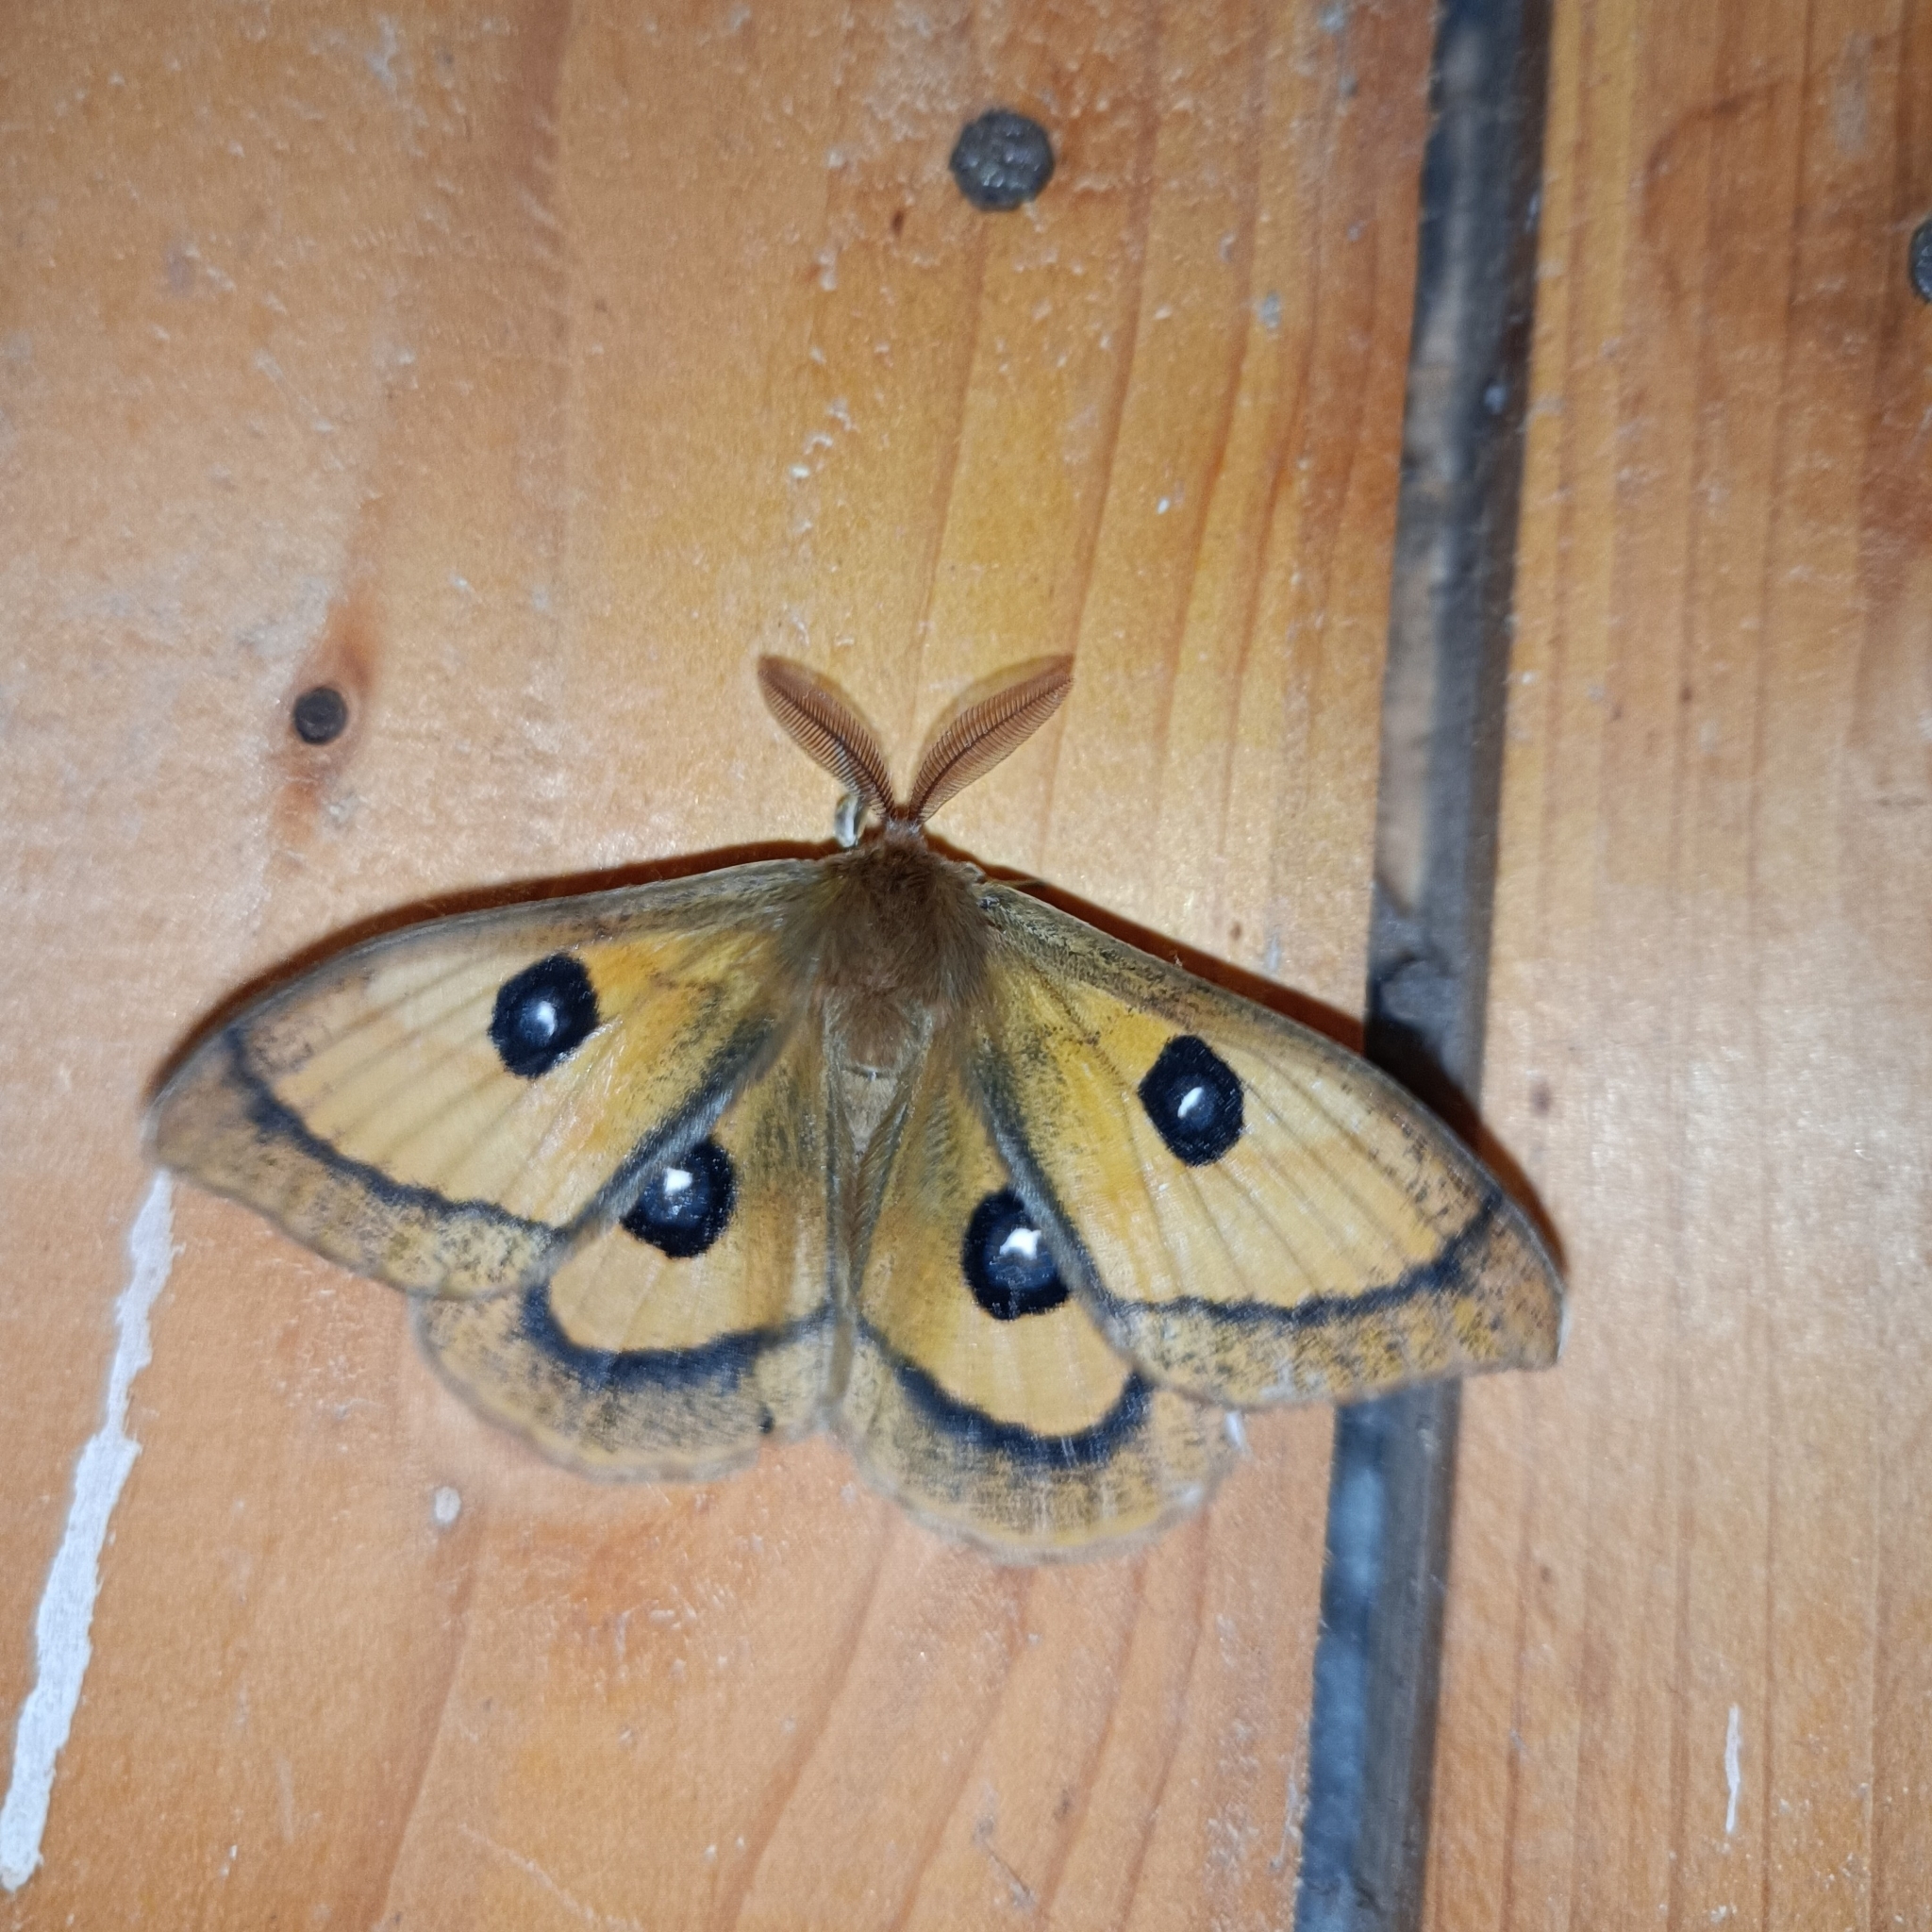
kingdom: Animalia
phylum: Arthropoda
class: Insecta
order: Lepidoptera
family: Saturniidae
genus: Aglia
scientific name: Aglia tau
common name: Tau emperor
